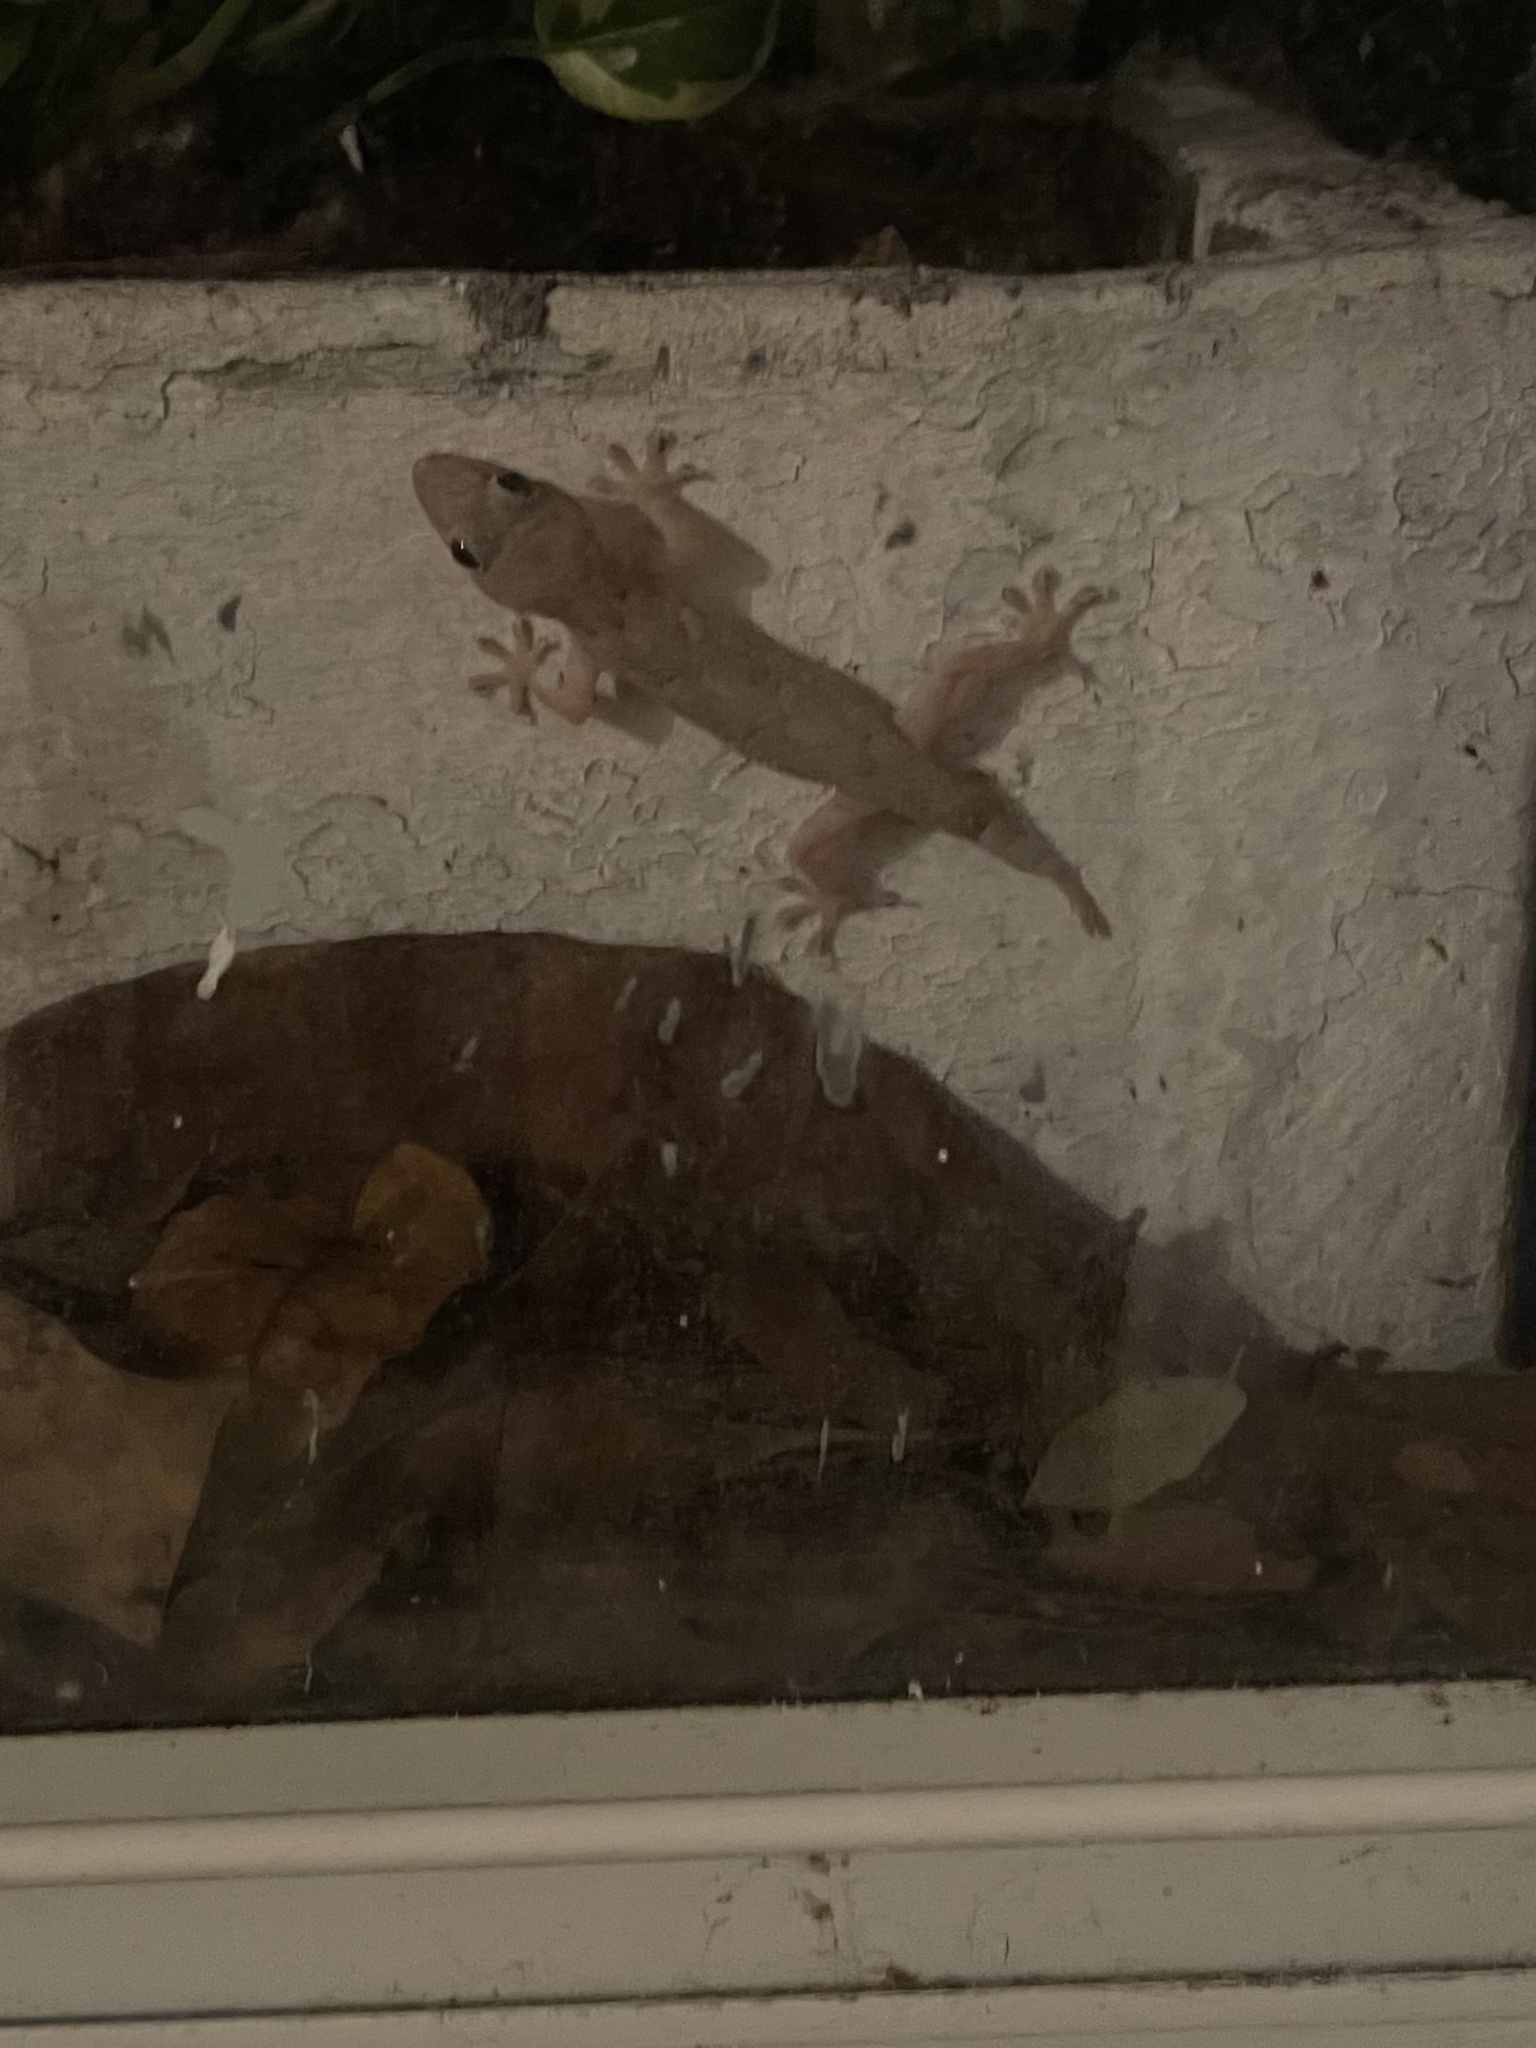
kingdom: Animalia
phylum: Chordata
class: Squamata
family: Gekkonidae
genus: Hemidactylus
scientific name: Hemidactylus mabouia
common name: House gecko
